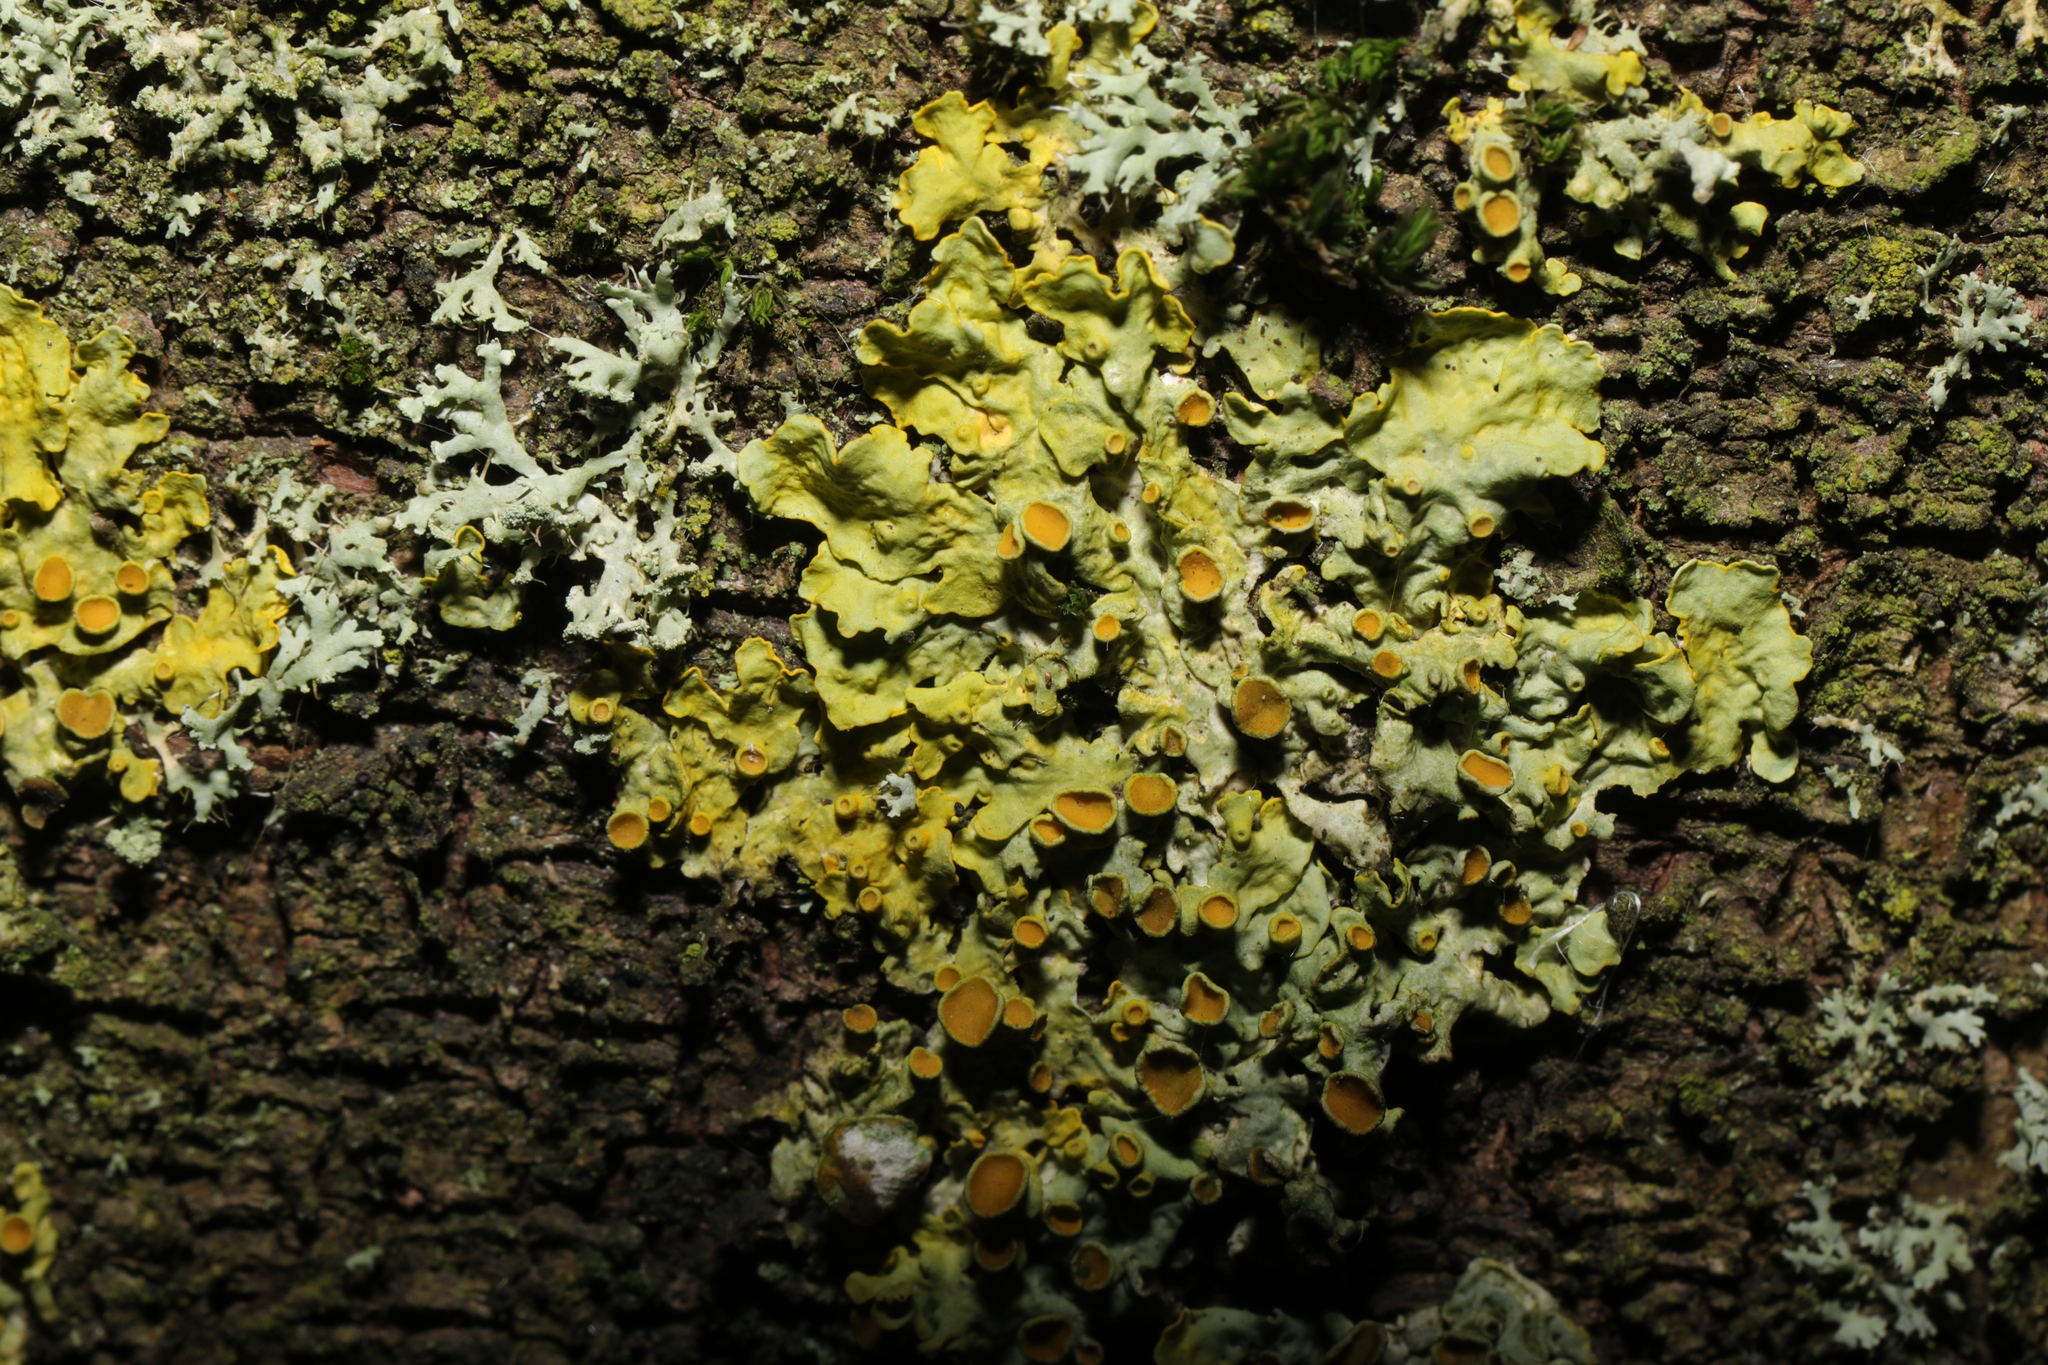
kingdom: Fungi
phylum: Ascomycota
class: Lecanoromycetes
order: Teloschistales
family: Teloschistaceae
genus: Xanthoria
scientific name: Xanthoria parietina
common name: Common orange lichen
